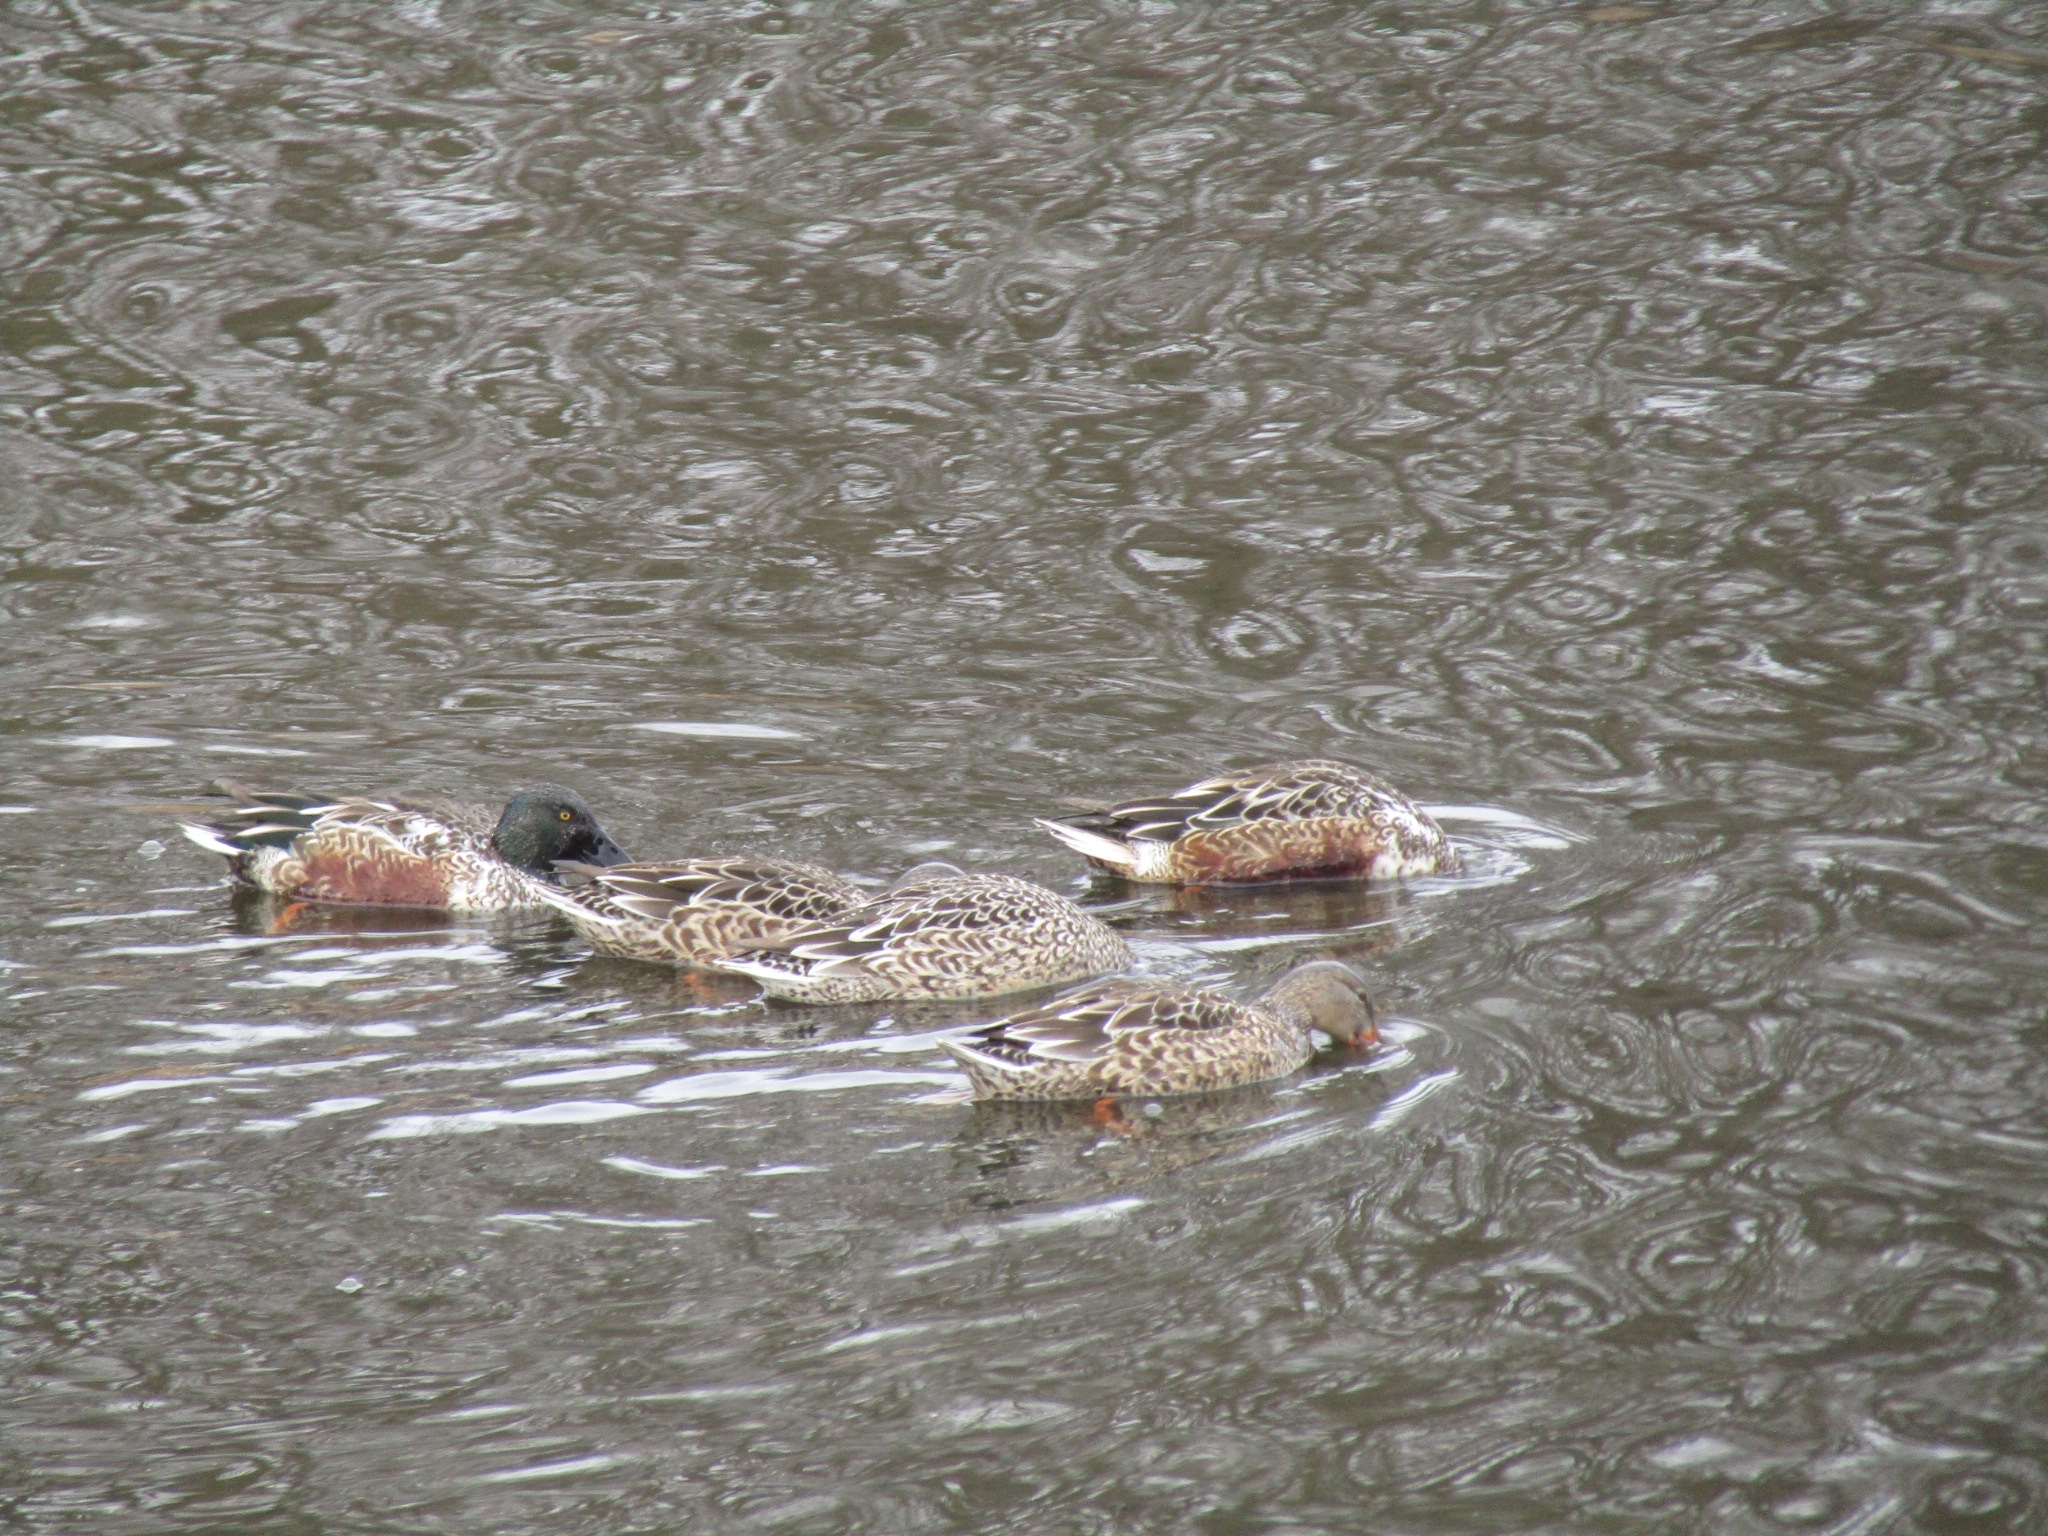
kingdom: Animalia
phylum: Chordata
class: Aves
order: Anseriformes
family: Anatidae
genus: Spatula
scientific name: Spatula clypeata
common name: Northern shoveler
